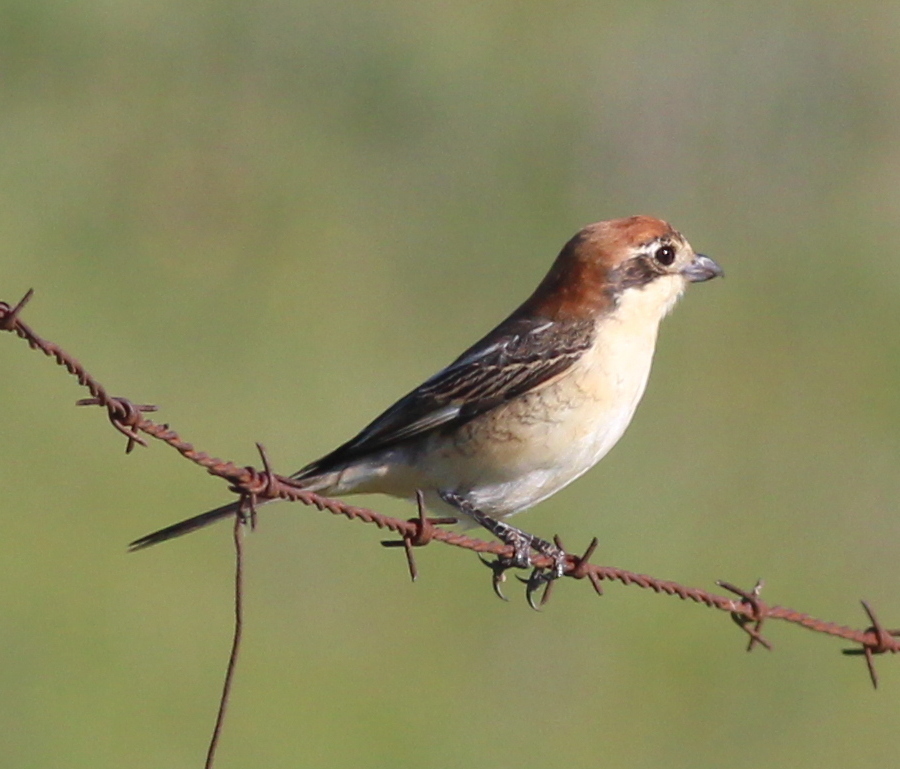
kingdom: Animalia
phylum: Chordata
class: Aves
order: Passeriformes
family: Laniidae
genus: Lanius
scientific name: Lanius senator
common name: Woodchat shrike
